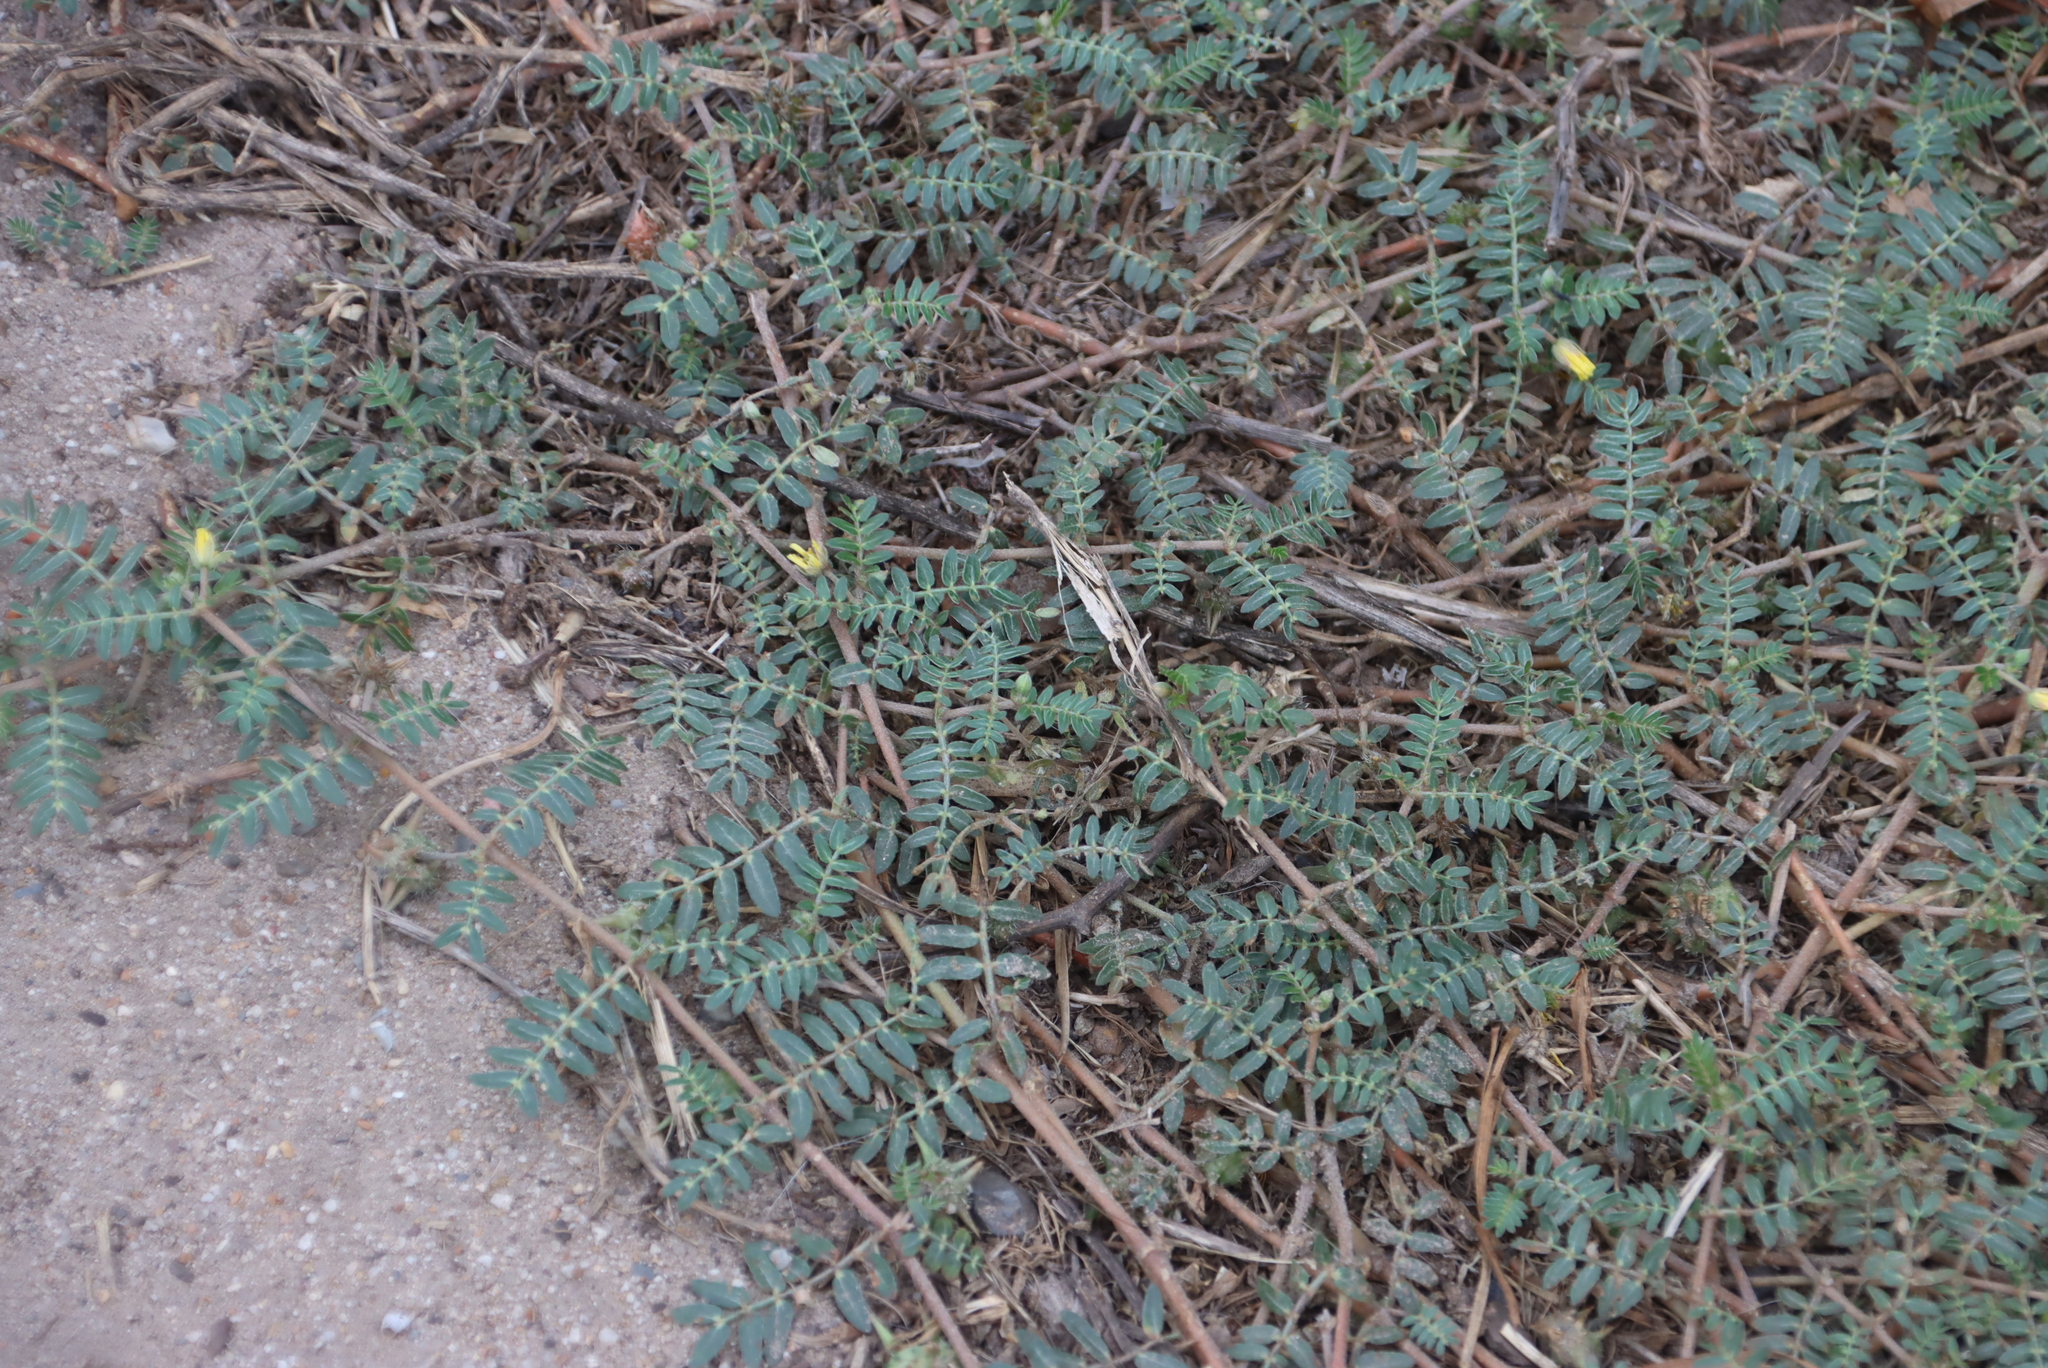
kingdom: Plantae
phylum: Tracheophyta
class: Magnoliopsida
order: Zygophyllales
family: Zygophyllaceae
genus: Tribulus
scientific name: Tribulus terrestris
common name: Puncturevine
